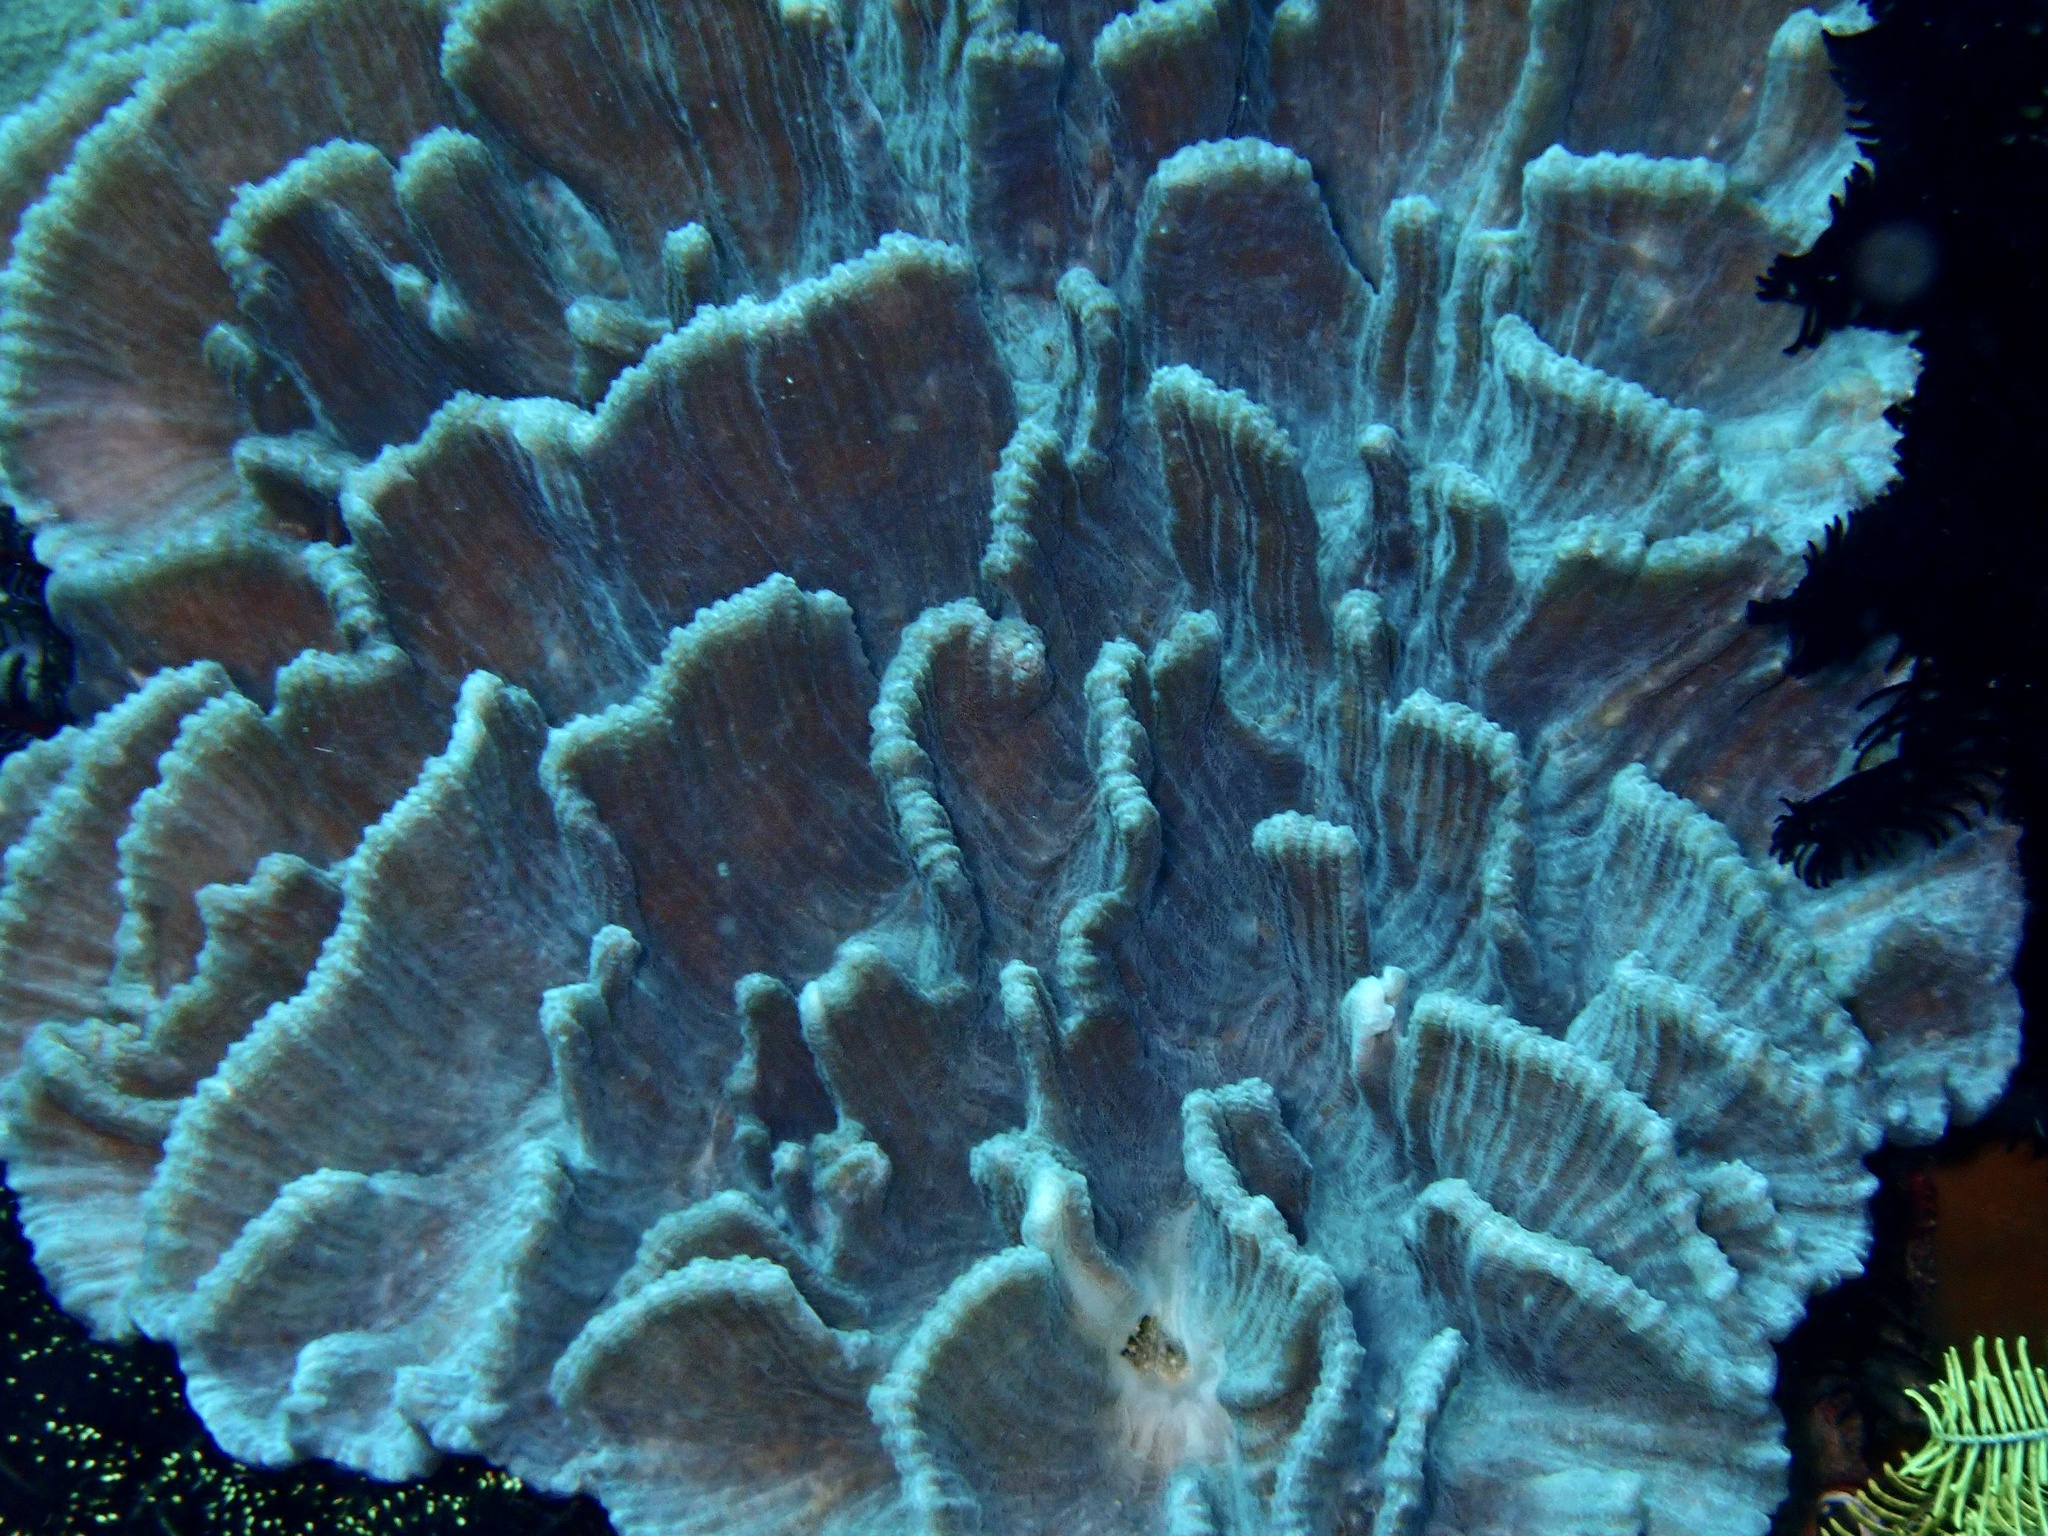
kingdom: Animalia
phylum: Cnidaria
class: Anthozoa
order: Scleractinia
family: Merulinidae
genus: Pectinia
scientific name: Pectinia lactuca
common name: Common lettuce coral
